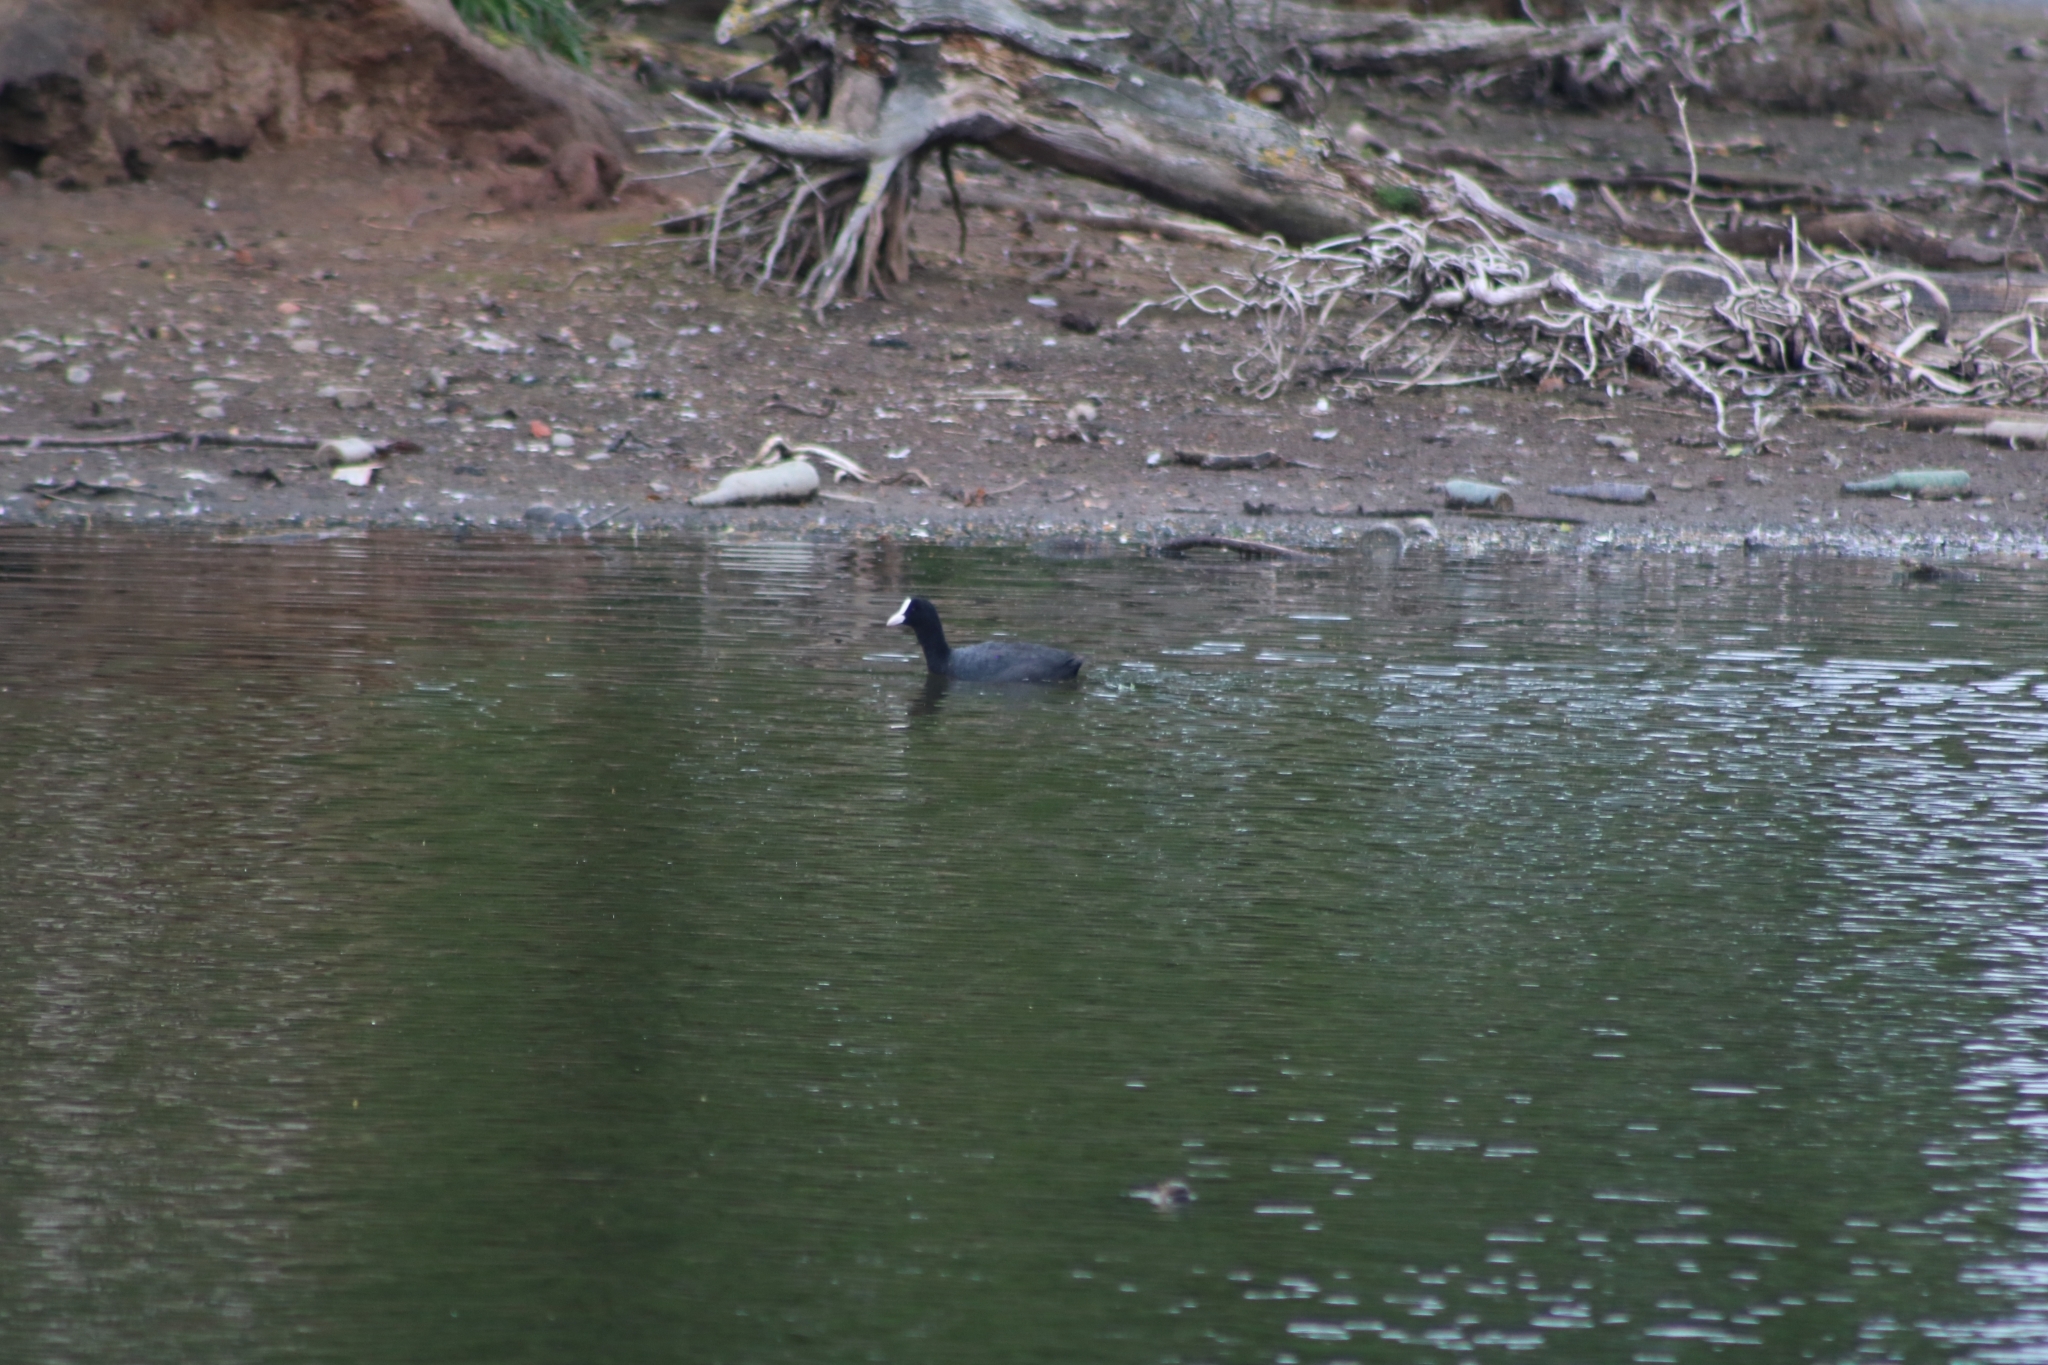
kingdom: Animalia
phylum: Chordata
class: Aves
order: Gruiformes
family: Rallidae
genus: Fulica
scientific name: Fulica atra
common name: Eurasian coot
